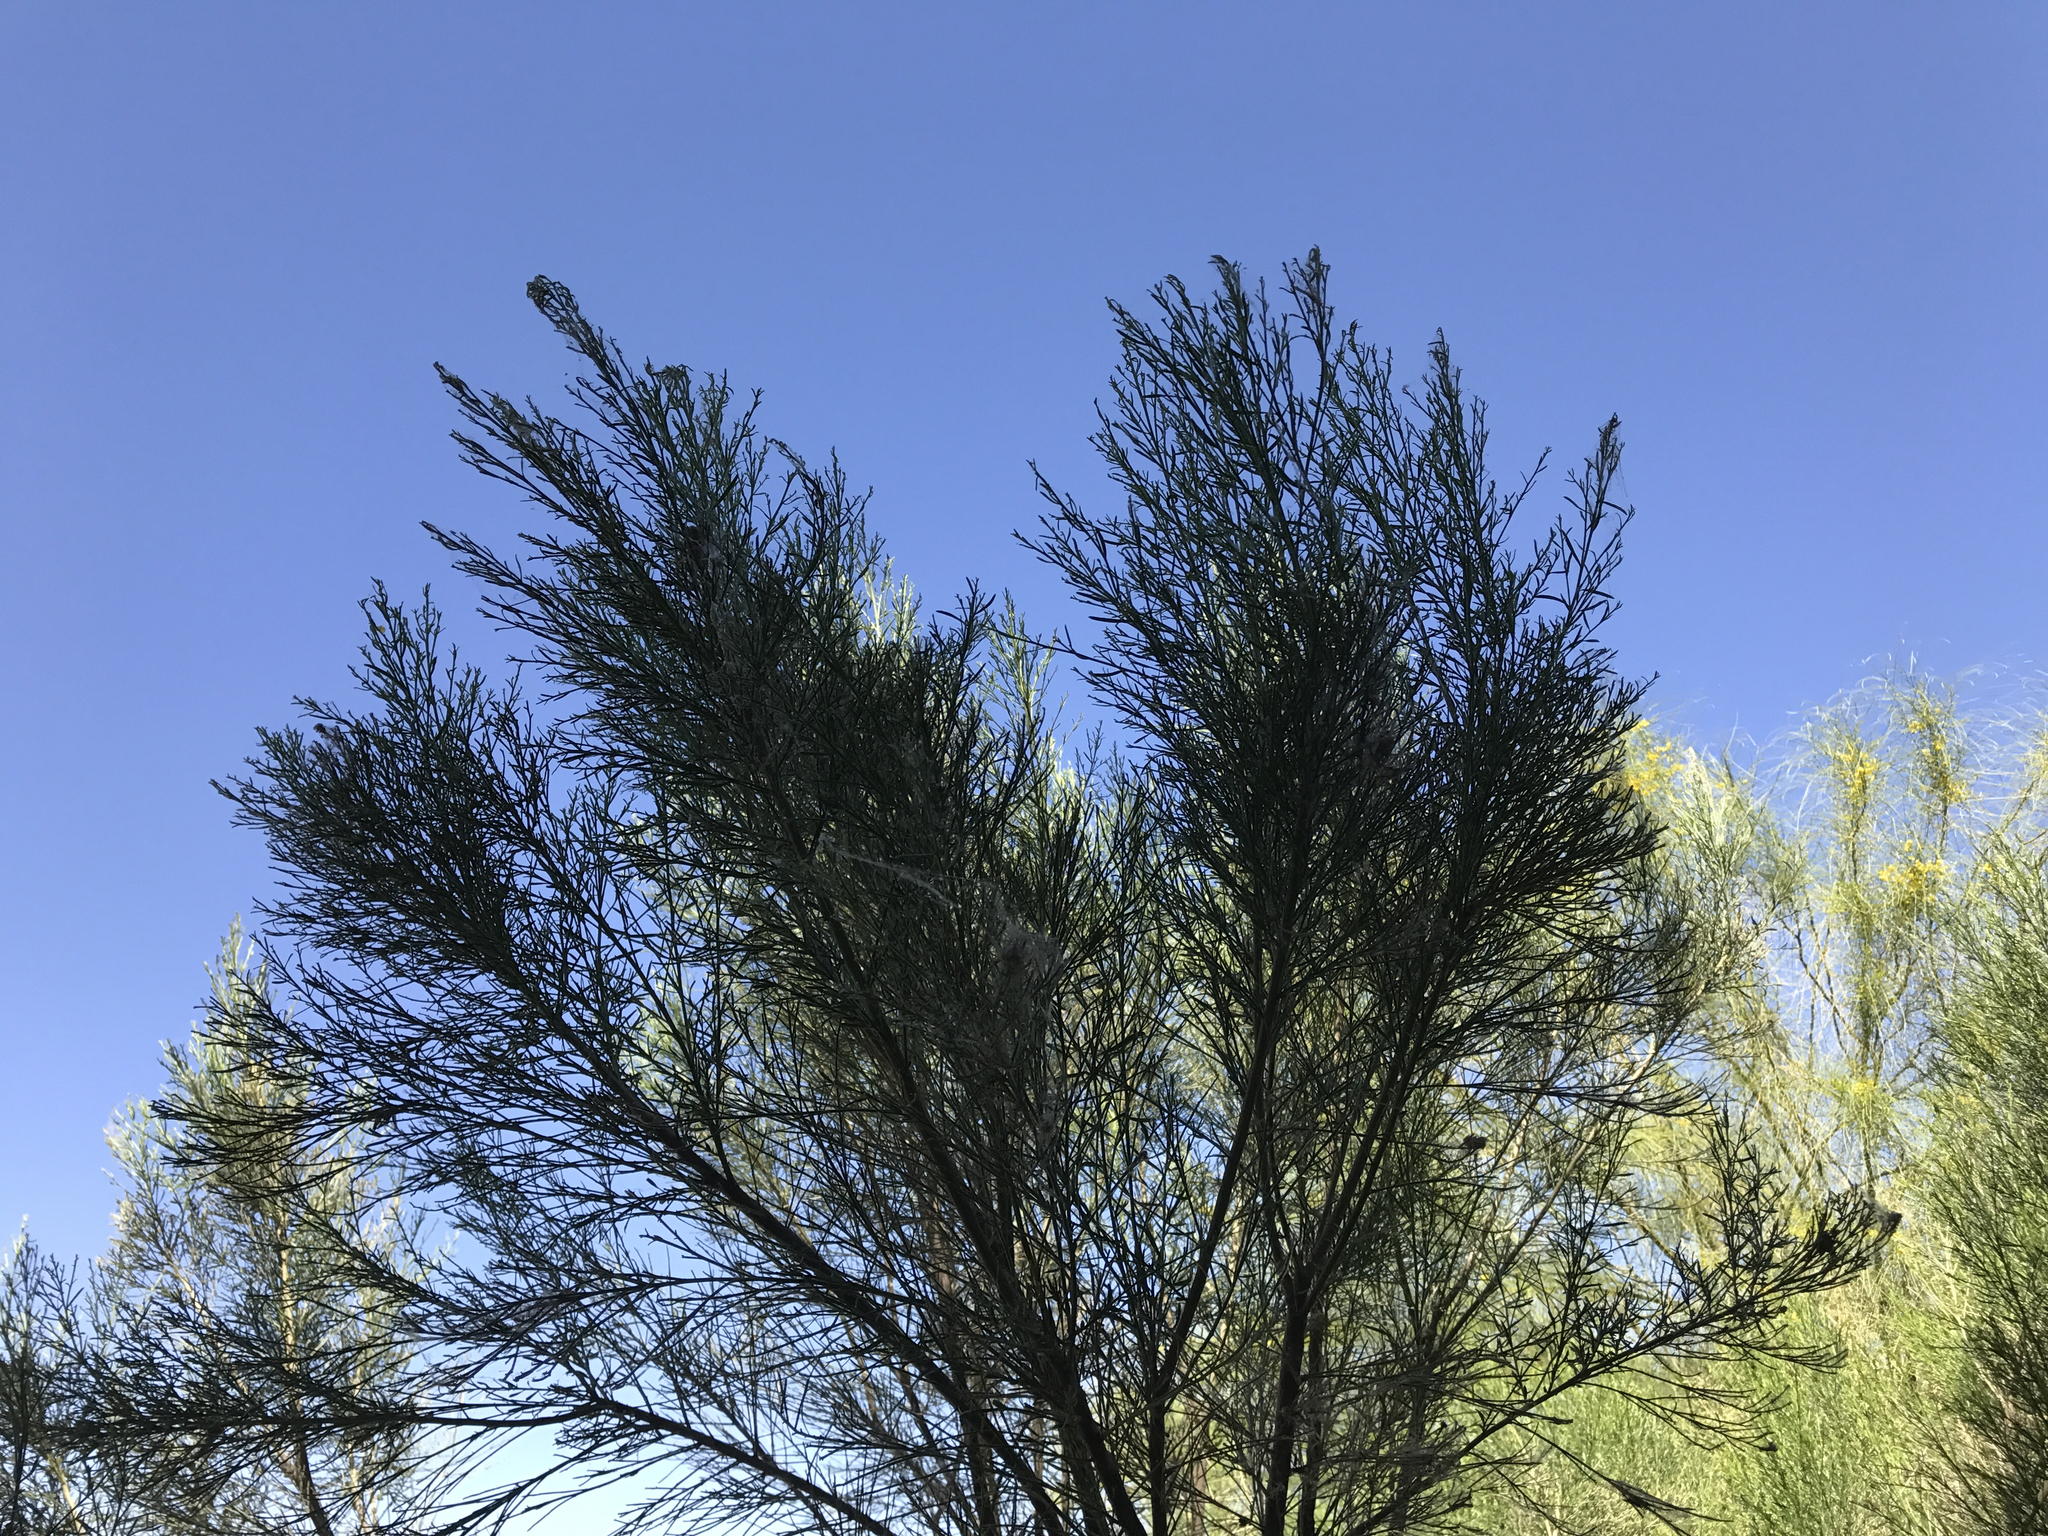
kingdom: Plantae
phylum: Tracheophyta
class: Magnoliopsida
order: Asterales
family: Asteraceae
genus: Baccharis
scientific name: Baccharis sarothroides
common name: Desert-broom
